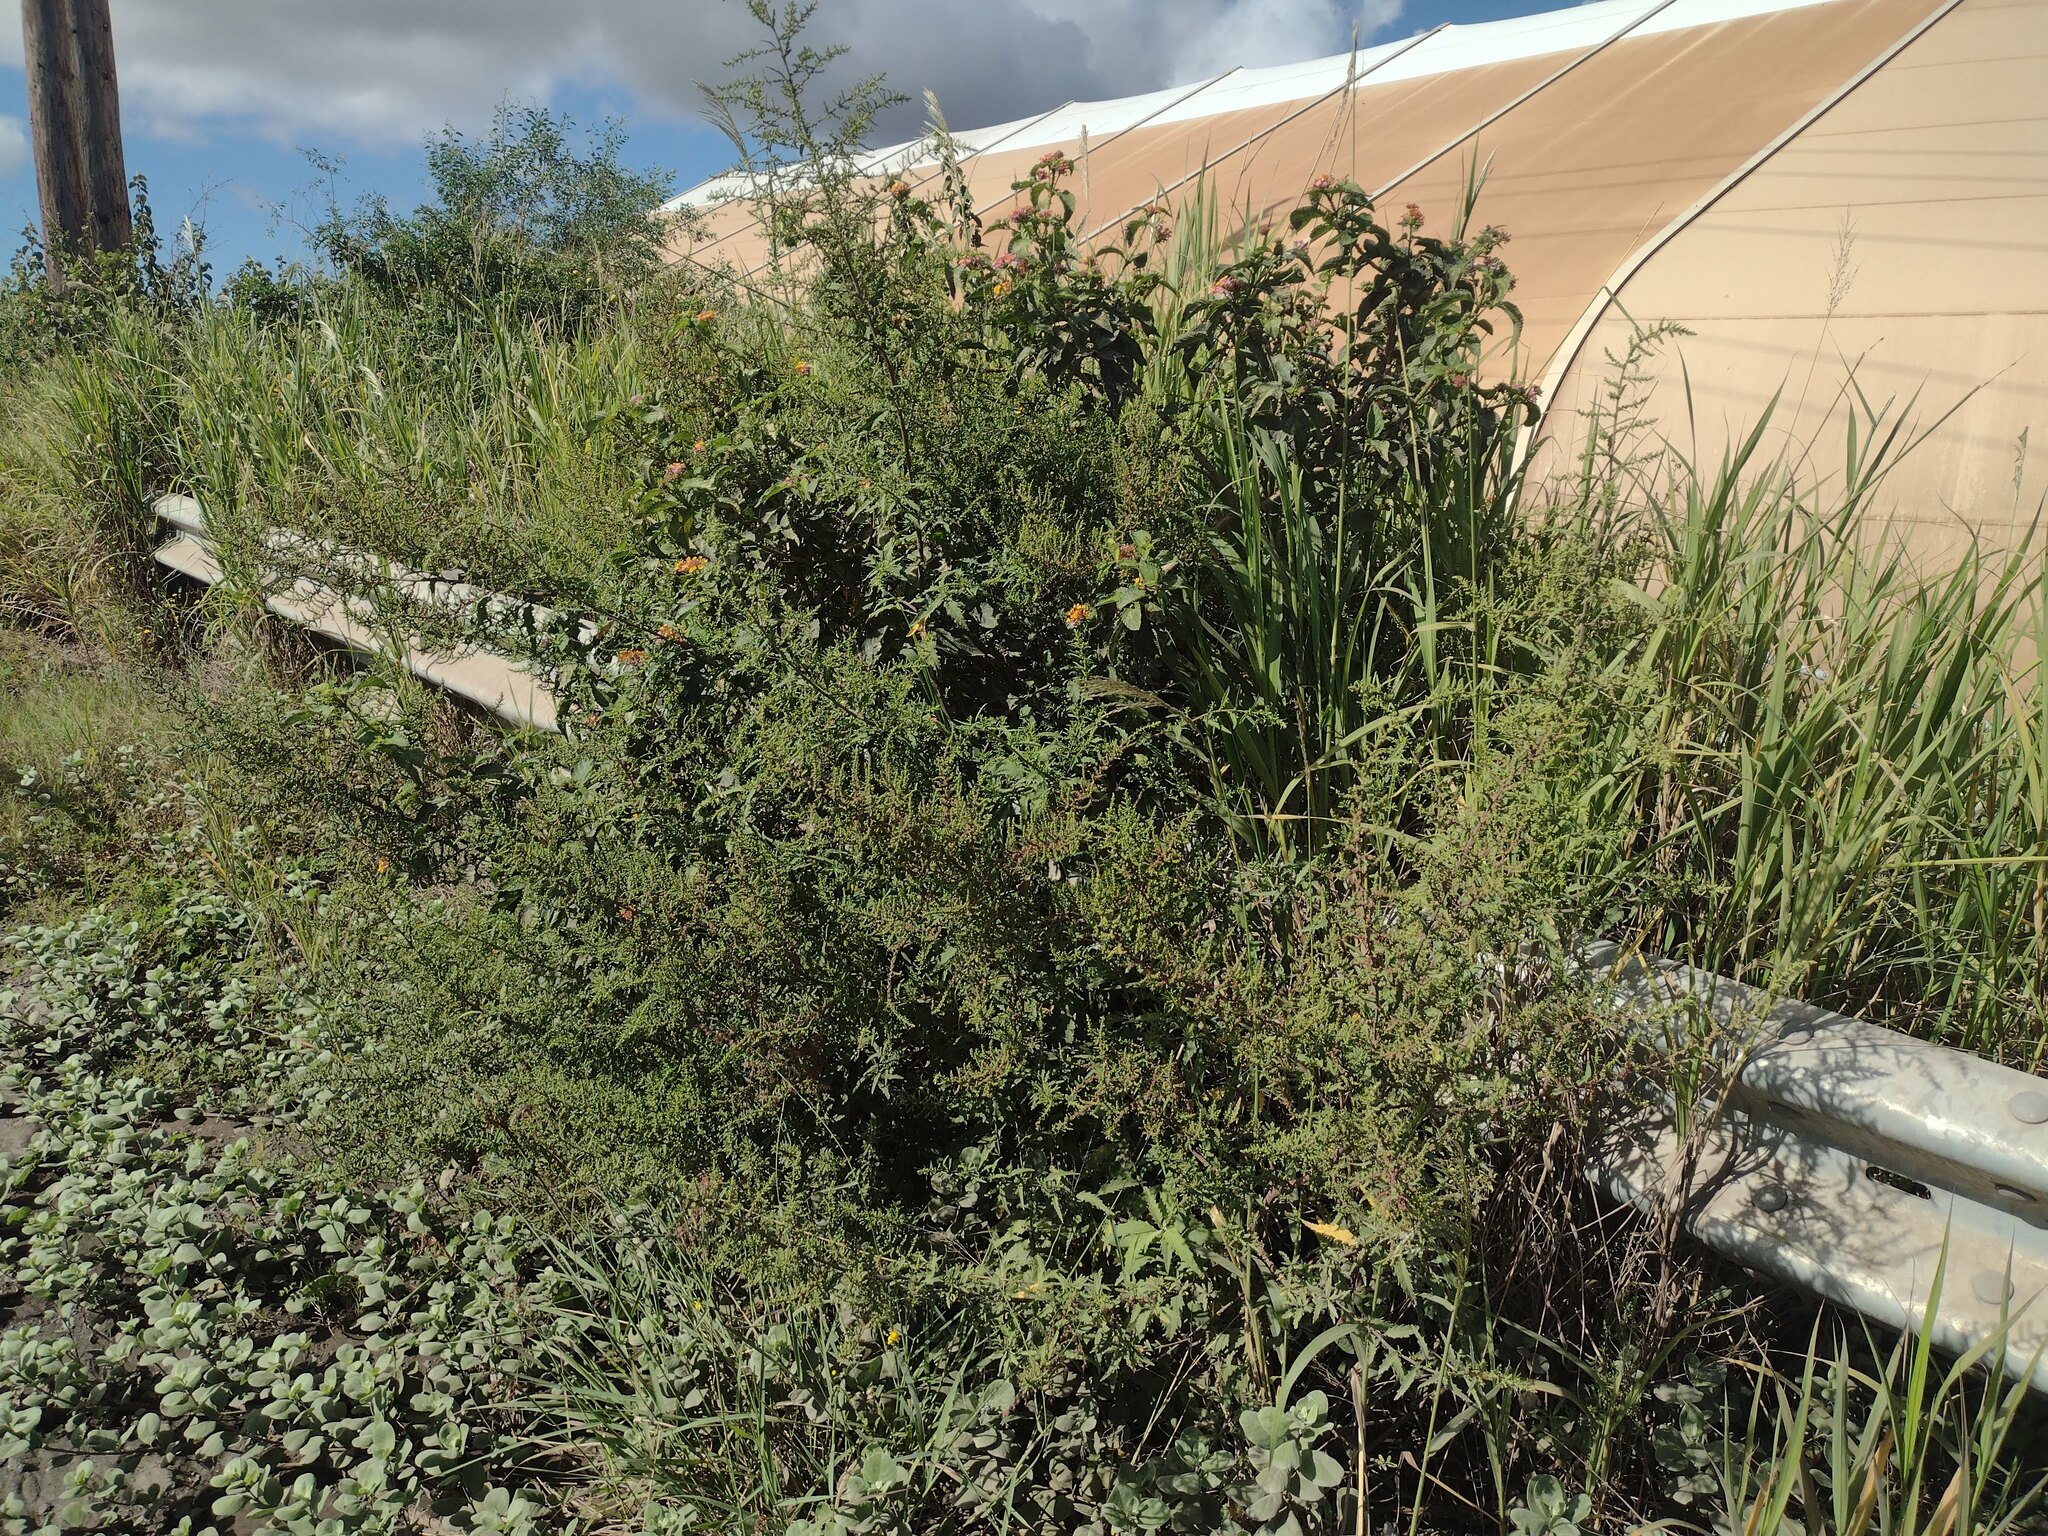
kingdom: Plantae
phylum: Tracheophyta
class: Magnoliopsida
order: Caryophyllales
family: Amaranthaceae
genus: Dysphania
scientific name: Dysphania ambrosioides
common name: Wormseed
